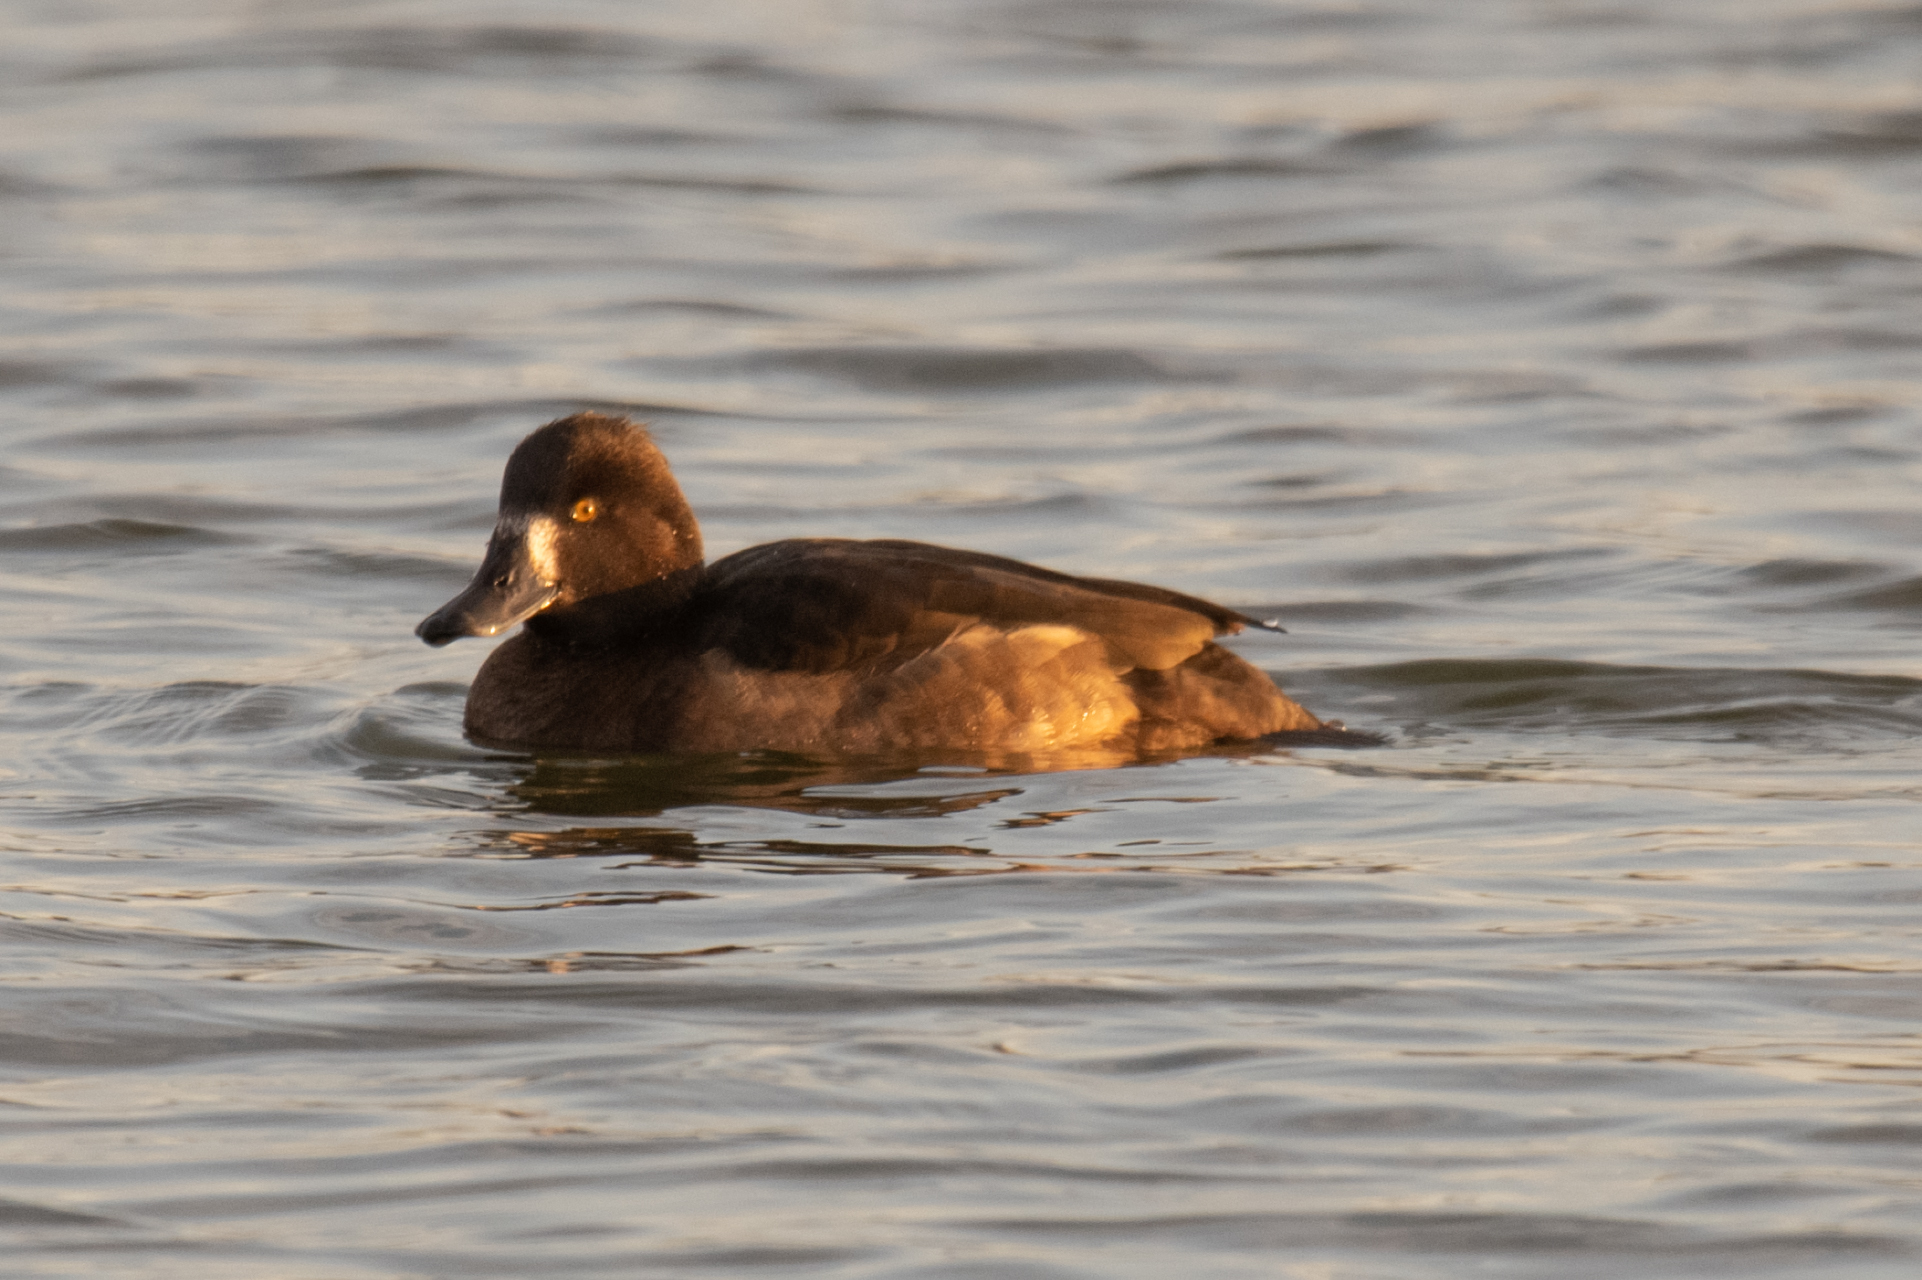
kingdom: Animalia
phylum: Chordata
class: Aves
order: Anseriformes
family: Anatidae
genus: Aythya
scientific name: Aythya marila
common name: Greater scaup
